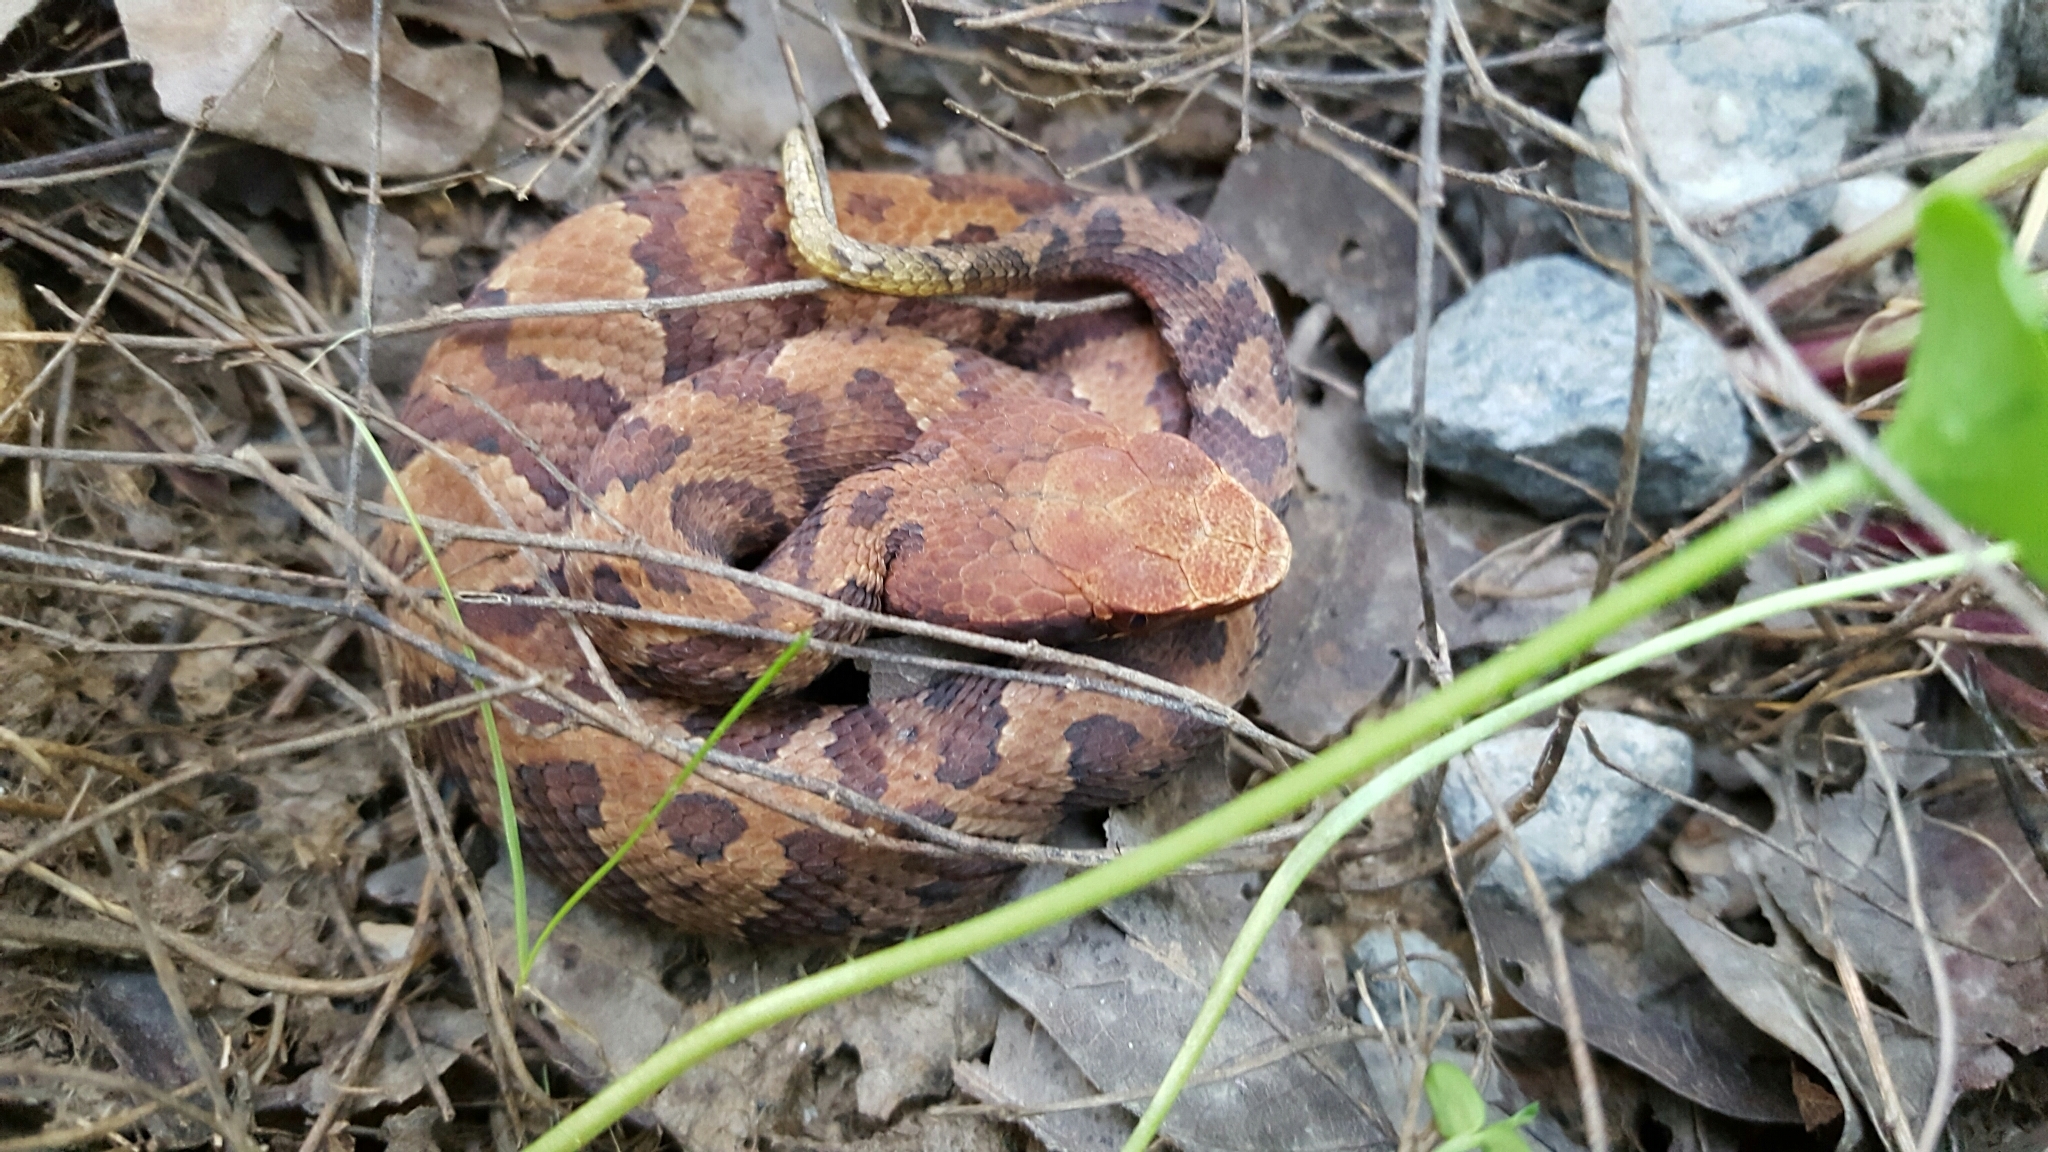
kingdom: Animalia
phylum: Chordata
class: Squamata
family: Viperidae
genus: Agkistrodon
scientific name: Agkistrodon piscivorus
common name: Cottonmouth
